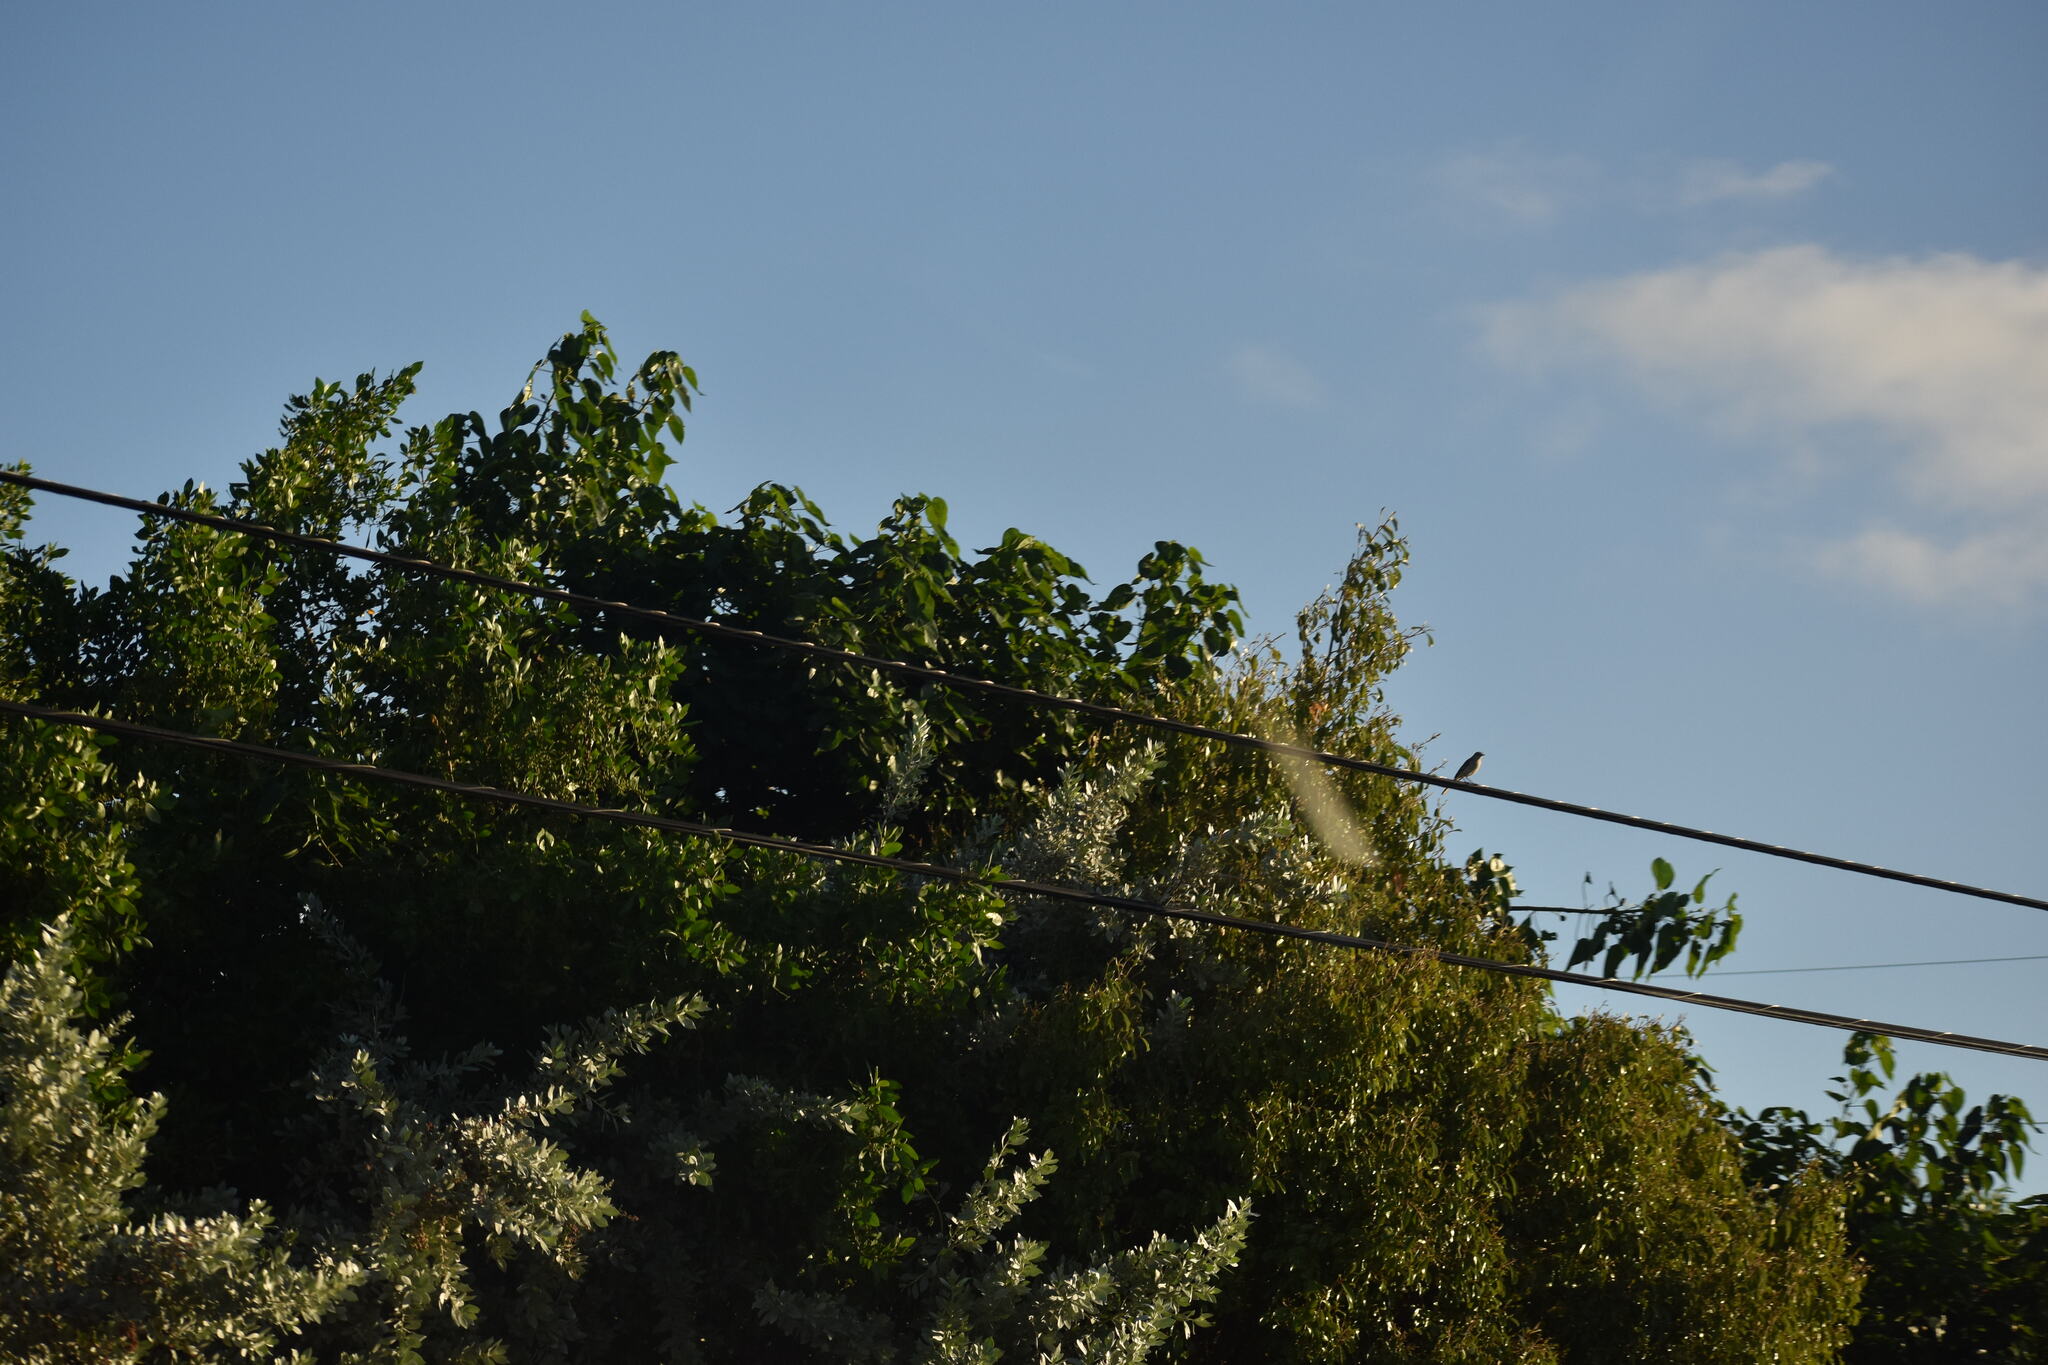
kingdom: Animalia
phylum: Chordata
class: Aves
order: Passeriformes
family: Mimidae
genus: Mimus
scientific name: Mimus polyglottos
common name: Northern mockingbird
